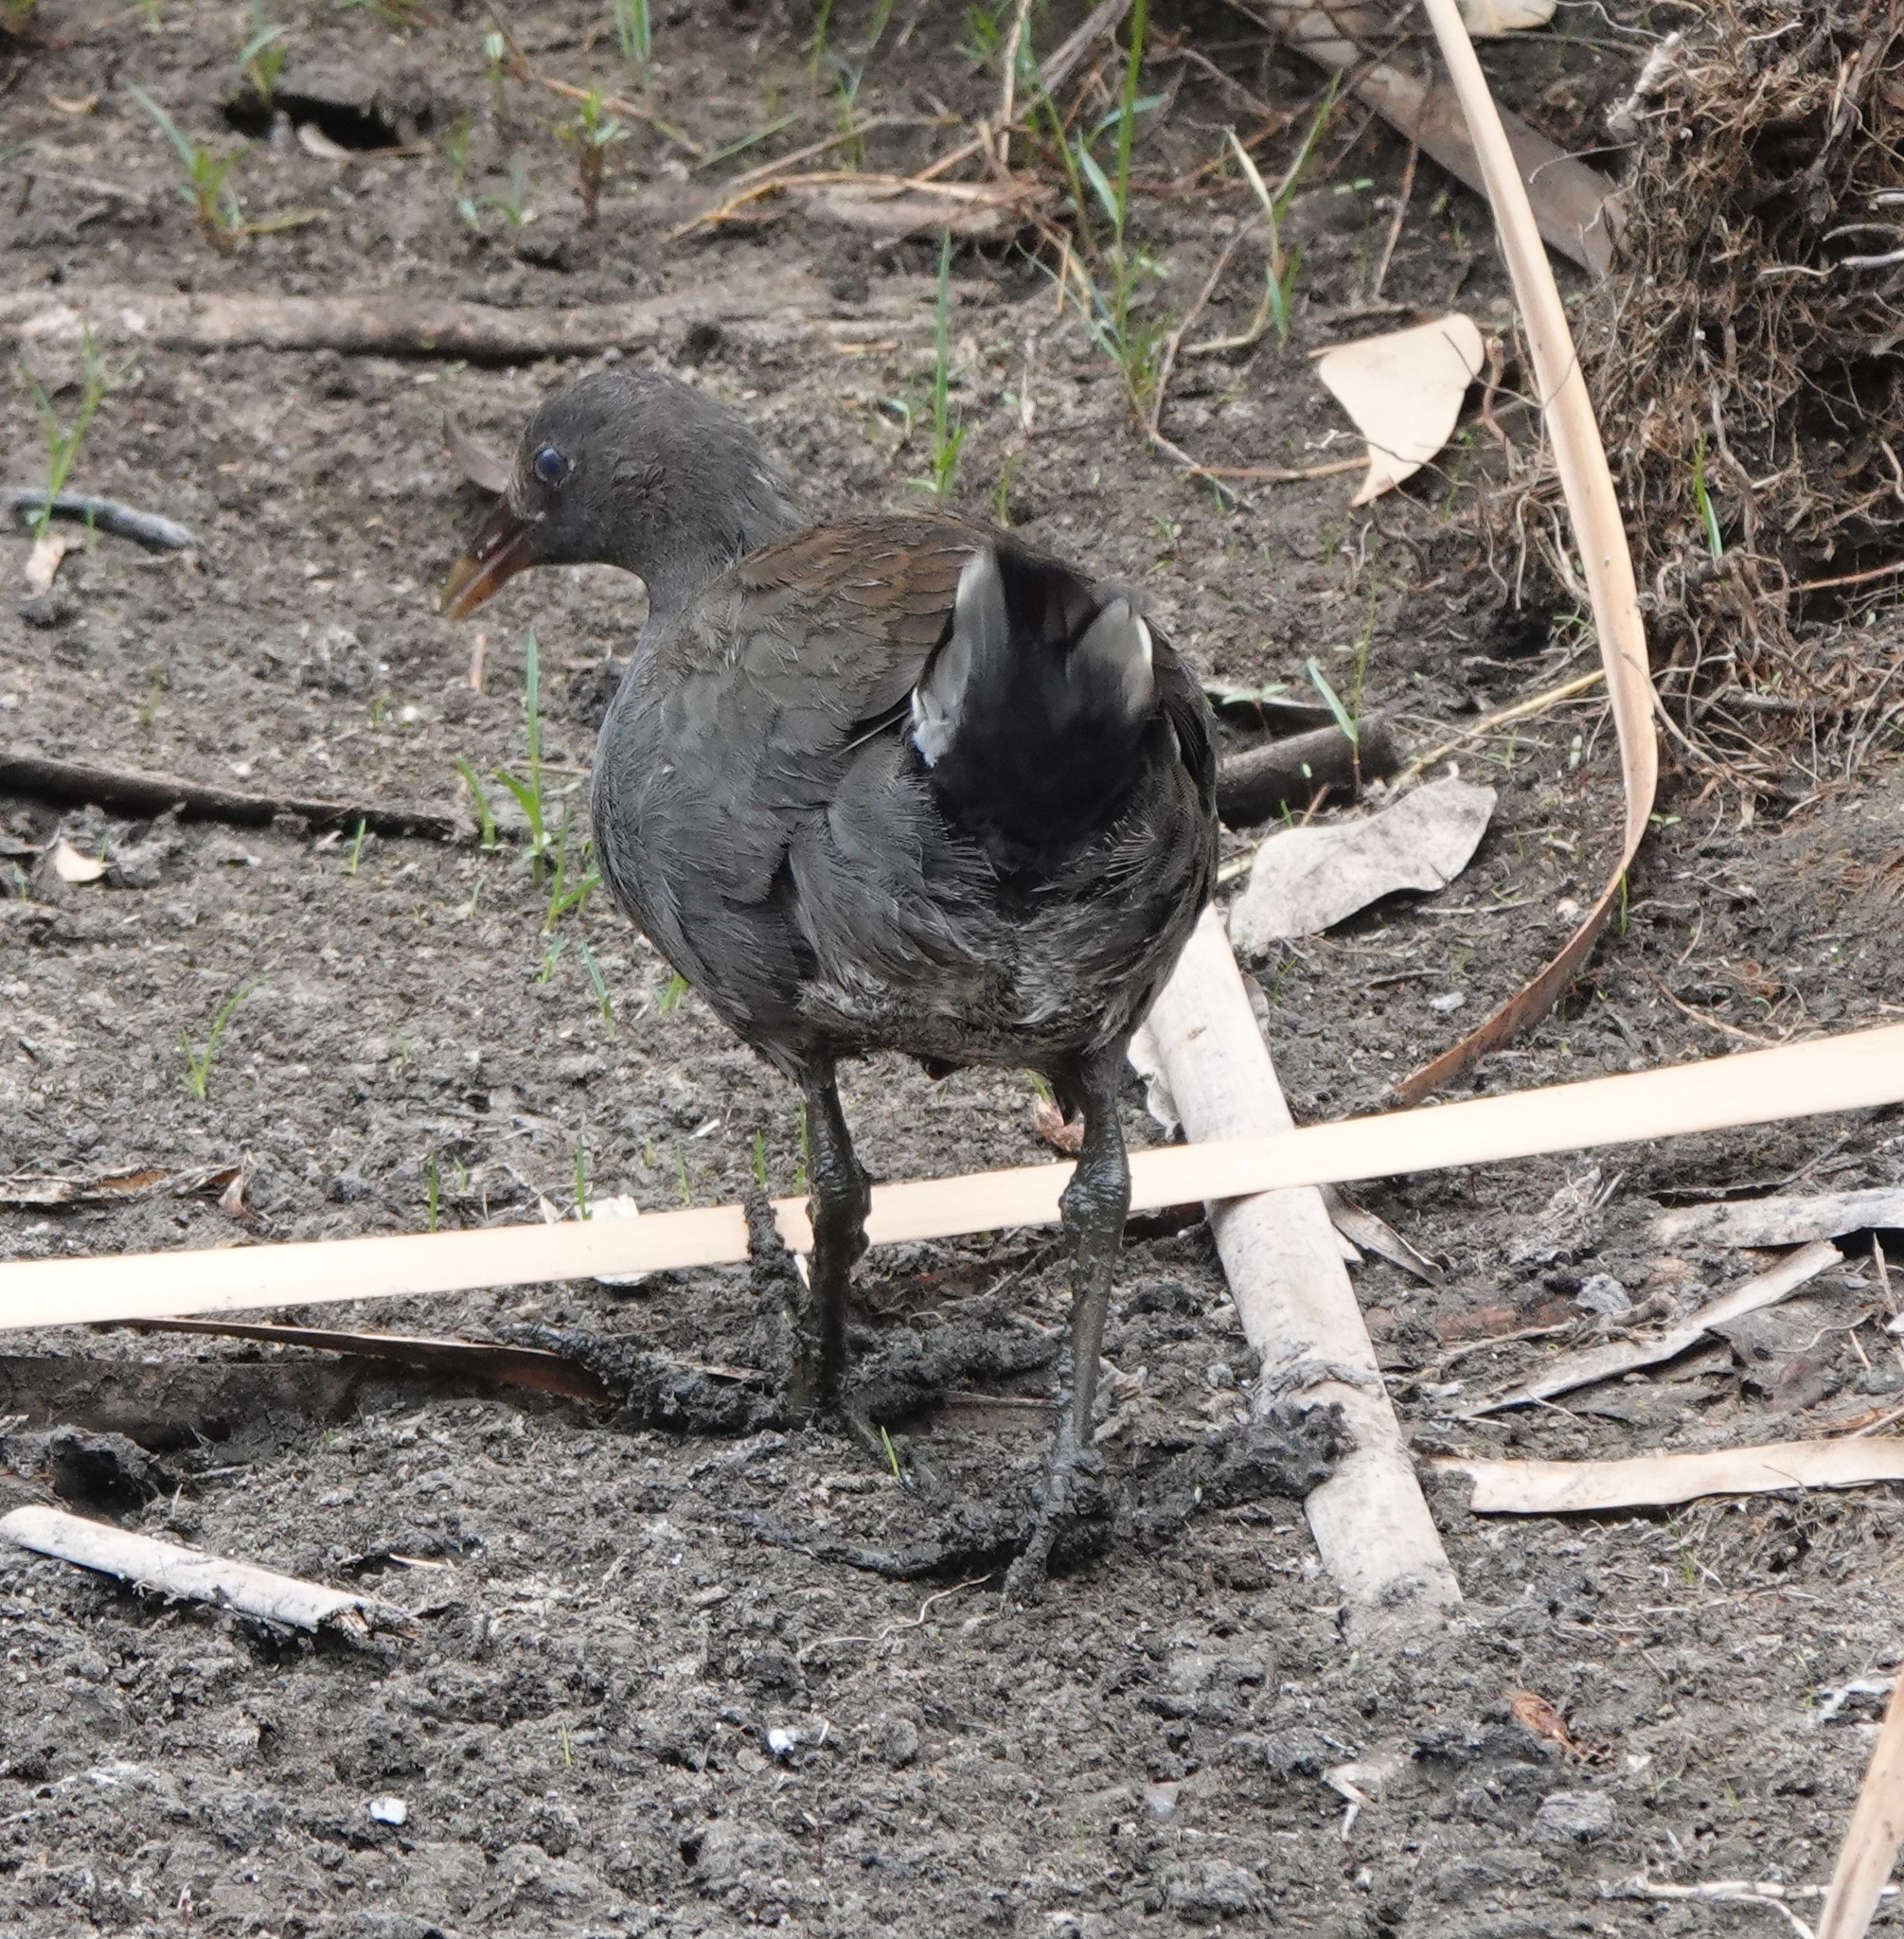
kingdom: Animalia
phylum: Chordata
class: Aves
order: Gruiformes
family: Rallidae
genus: Gallinula
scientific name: Gallinula tenebrosa
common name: Dusky moorhen
